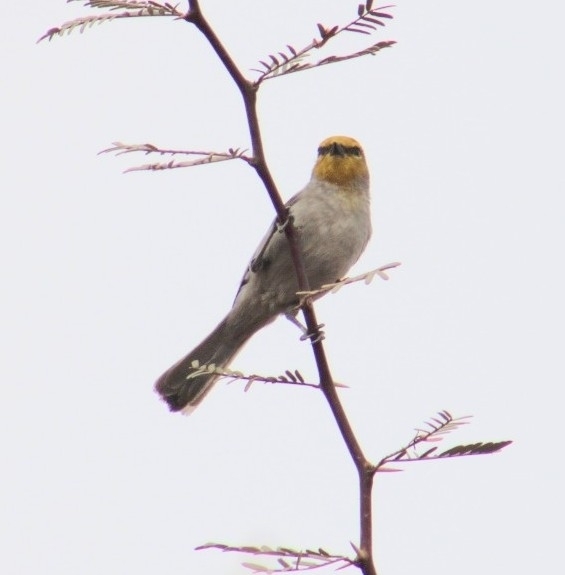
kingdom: Animalia
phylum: Chordata
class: Aves
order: Passeriformes
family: Remizidae
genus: Auriparus
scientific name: Auriparus flaviceps
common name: Verdin
